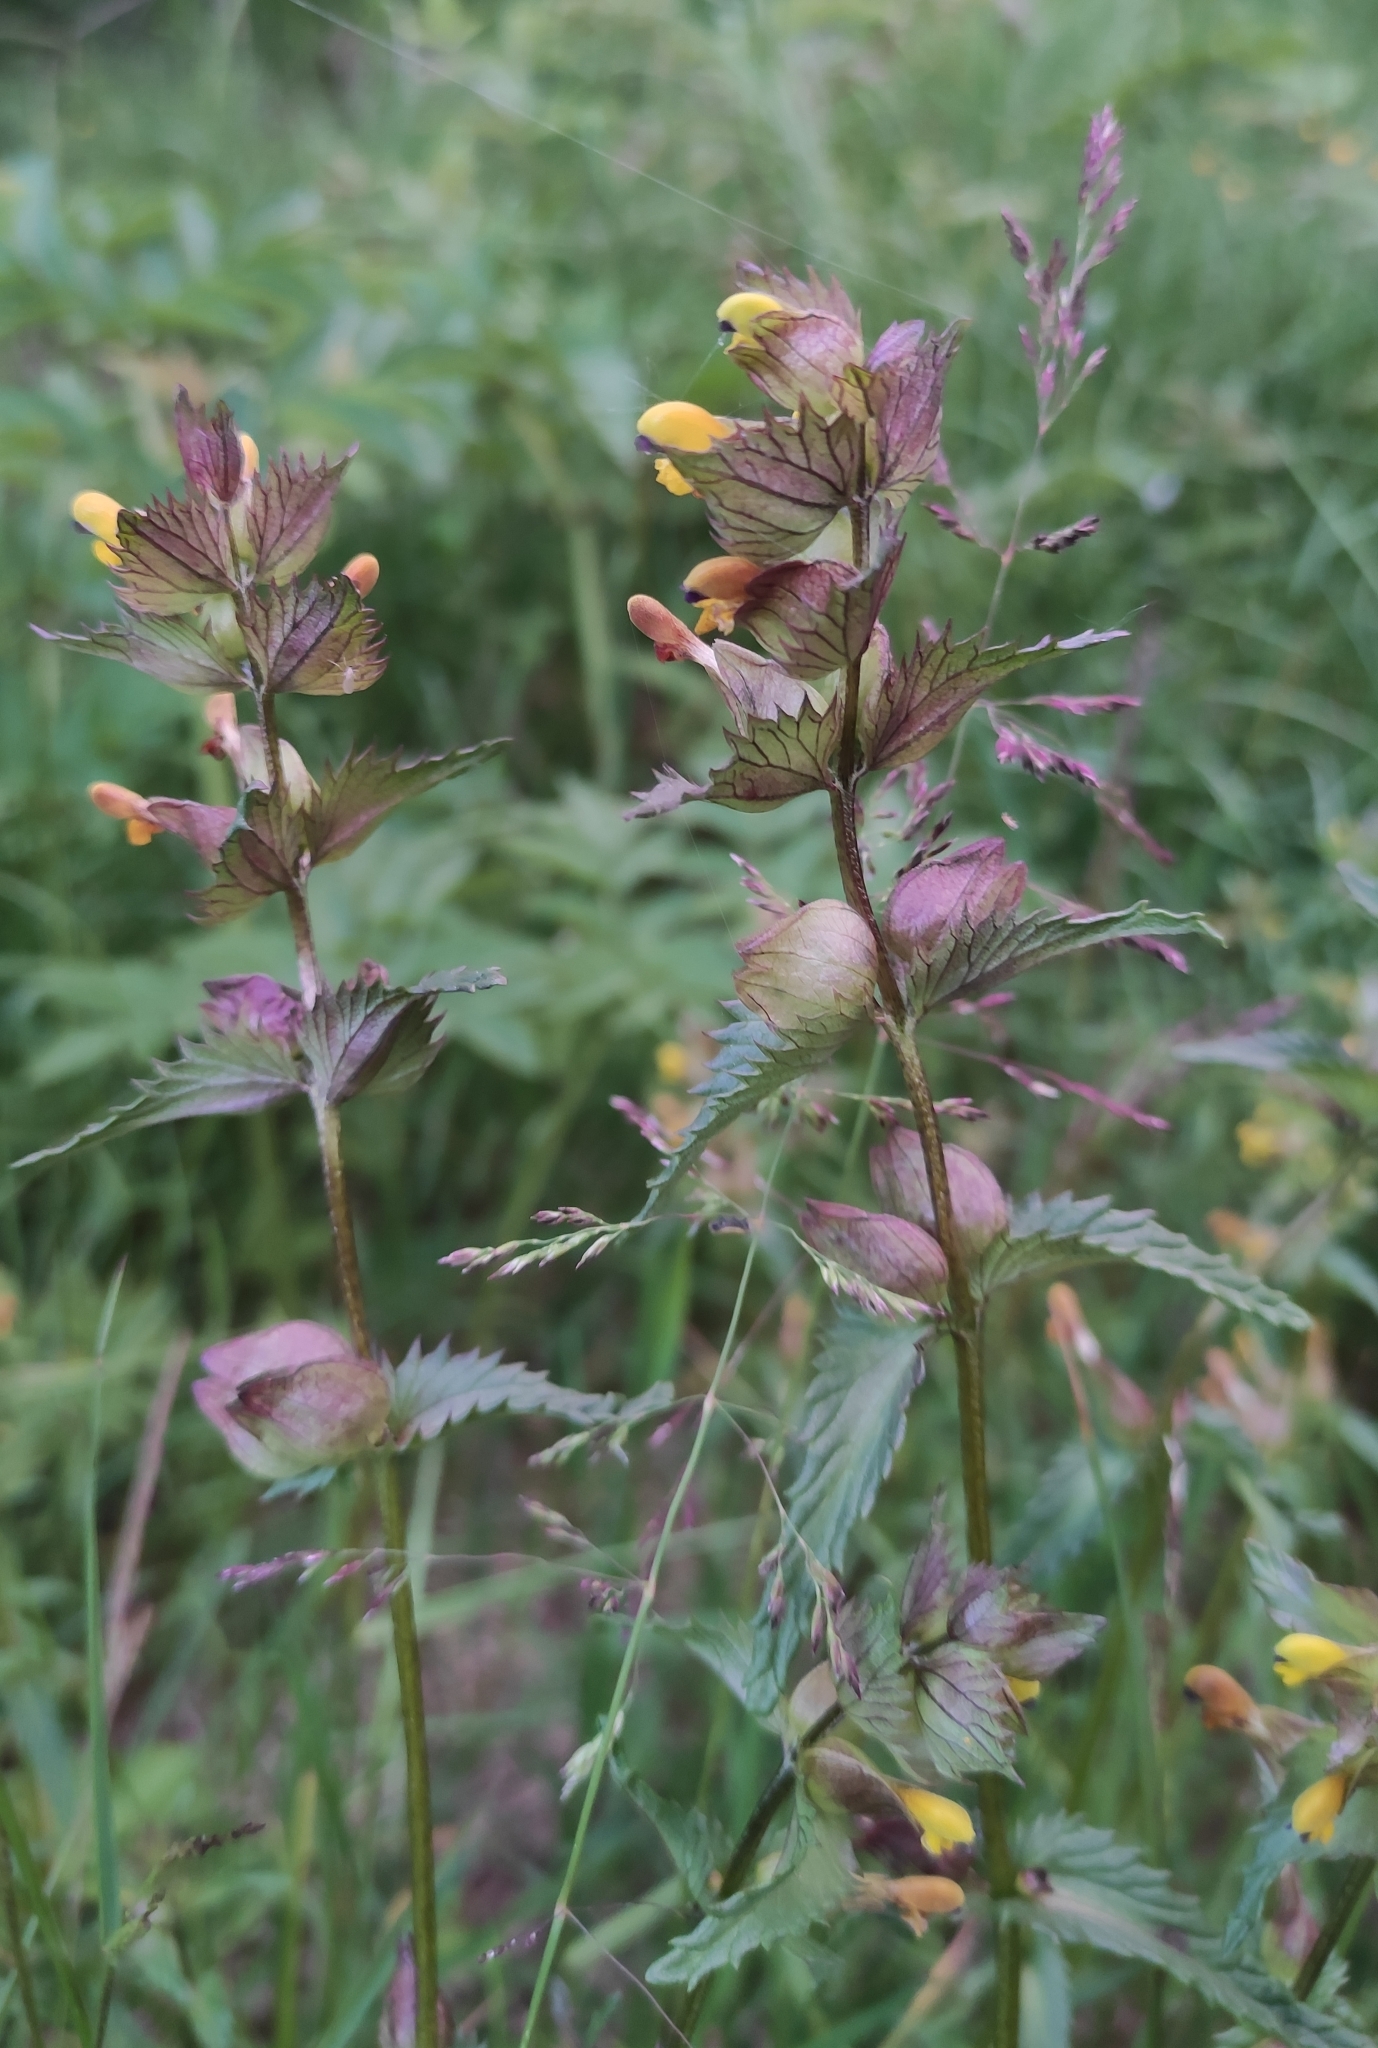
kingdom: Plantae
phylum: Tracheophyta
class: Magnoliopsida
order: Lamiales
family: Orobanchaceae
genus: Rhinanthus
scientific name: Rhinanthus minor
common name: Yellow-rattle
